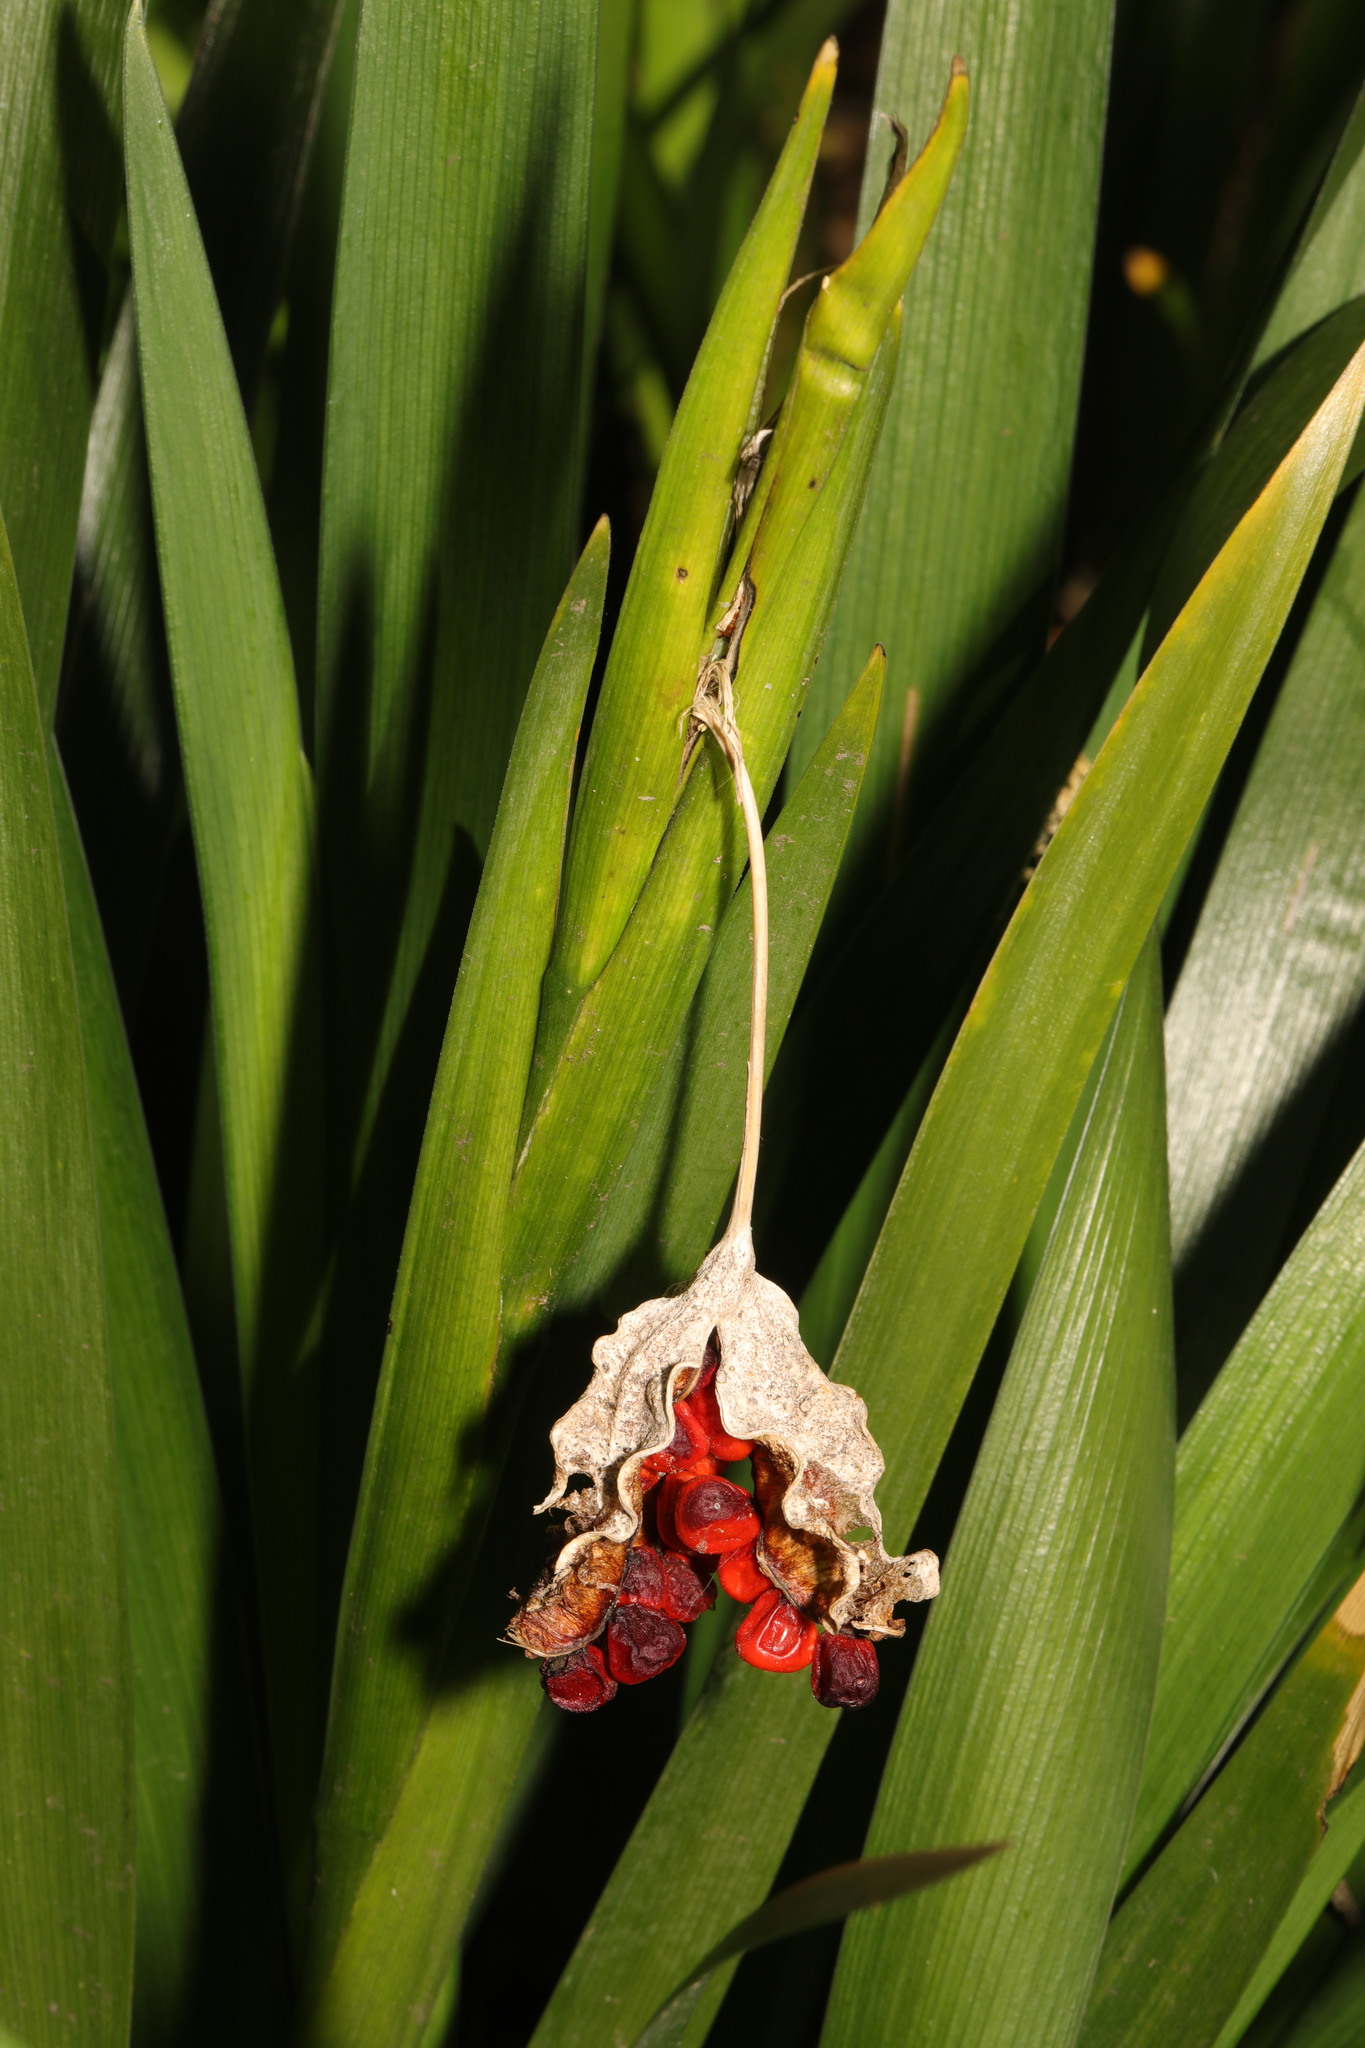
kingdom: Plantae
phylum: Tracheophyta
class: Liliopsida
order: Asparagales
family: Iridaceae
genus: Iris
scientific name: Iris foetidissima
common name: Stinking iris
